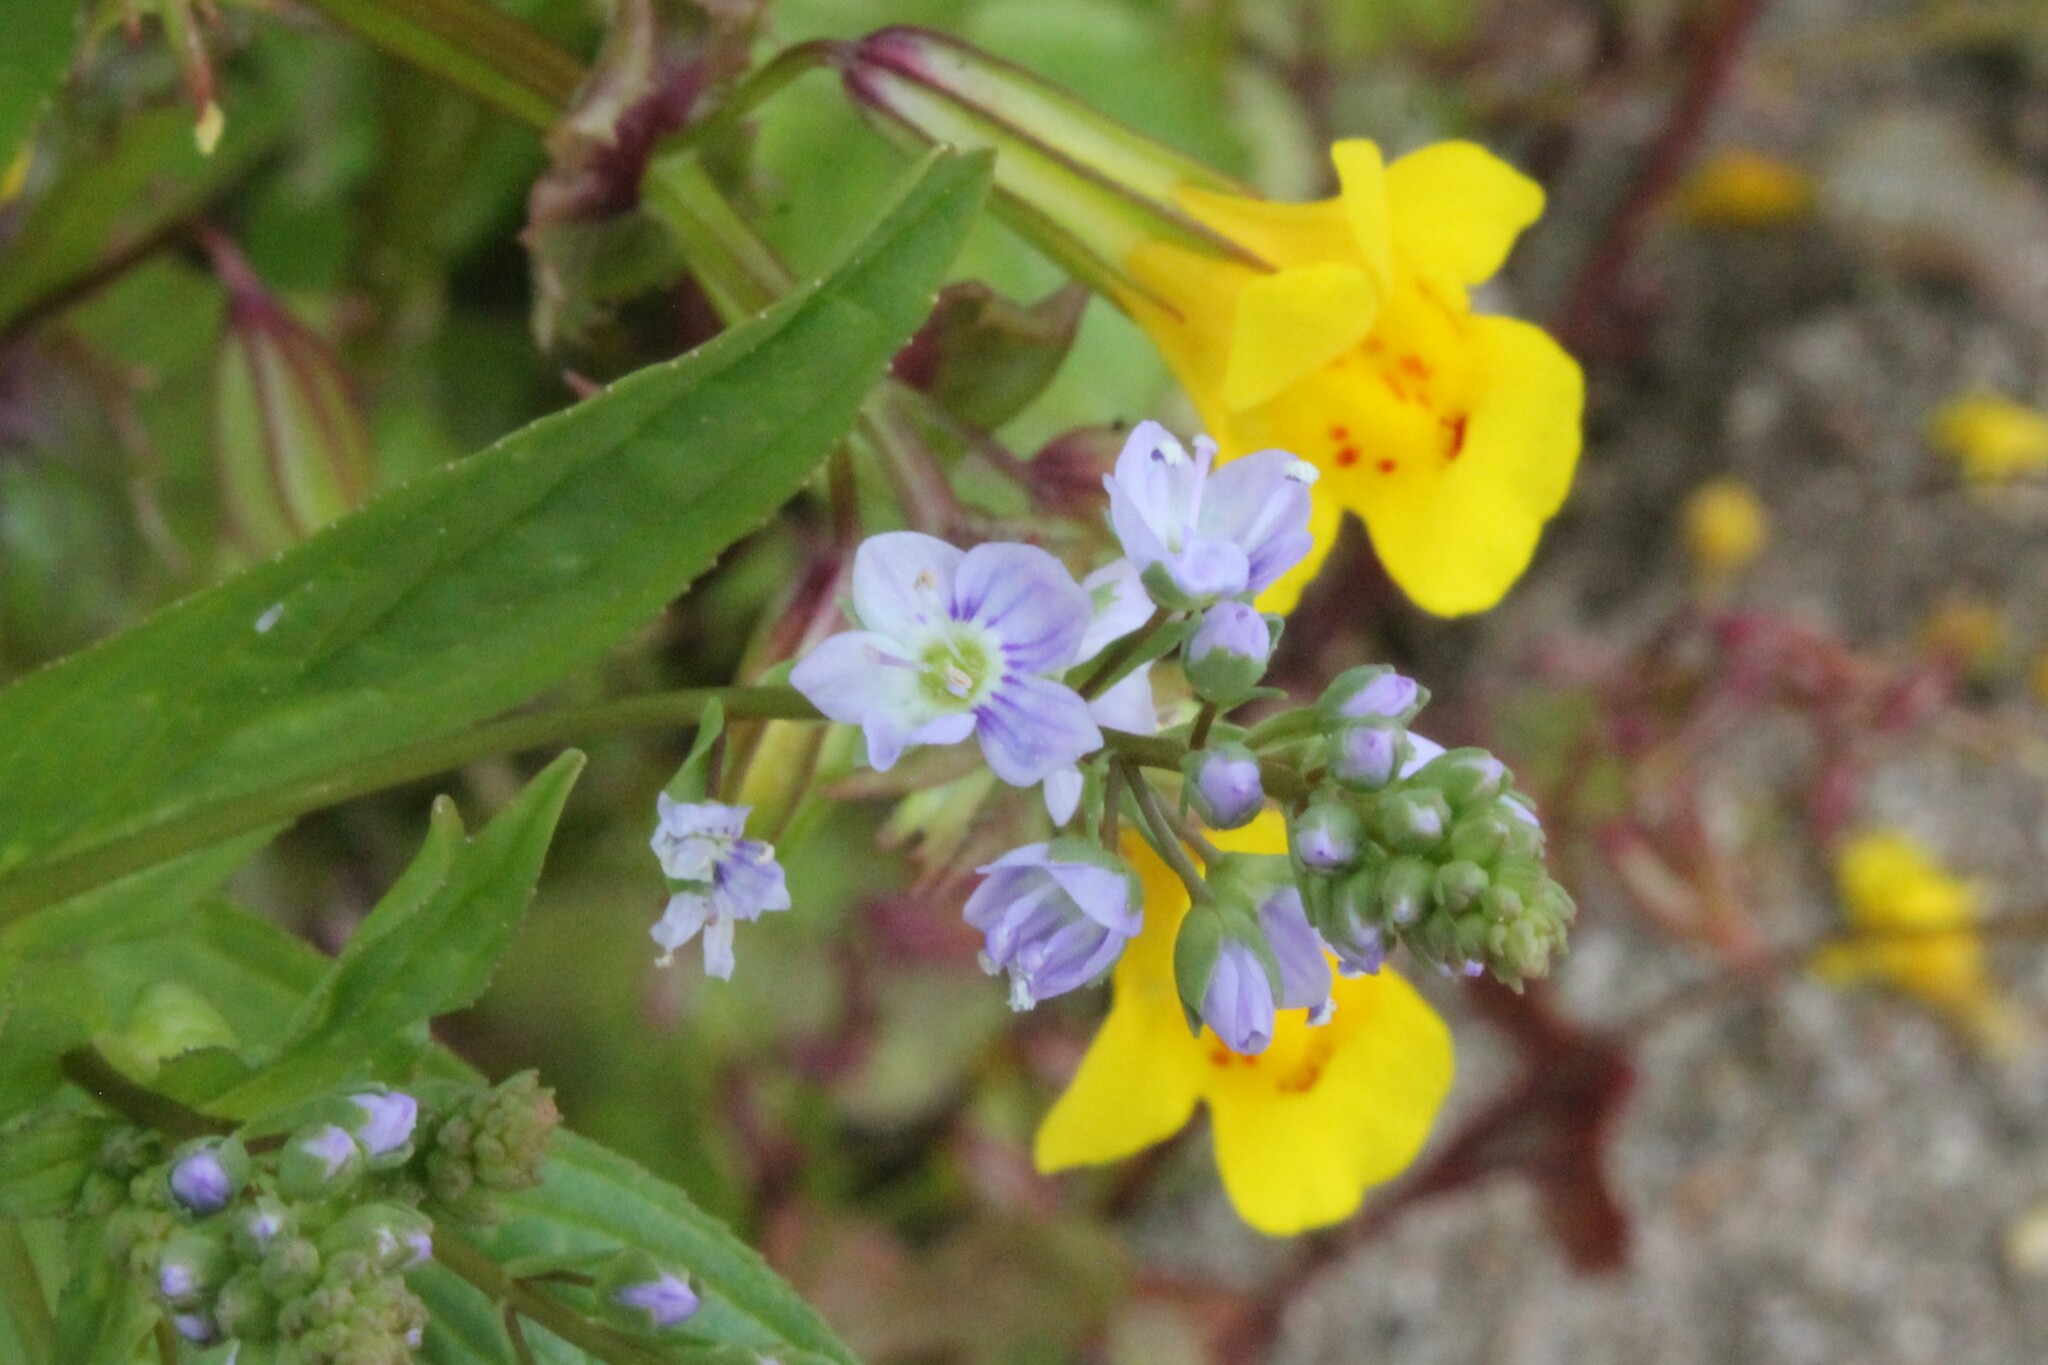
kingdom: Plantae
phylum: Tracheophyta
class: Magnoliopsida
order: Lamiales
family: Plantaginaceae
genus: Veronica
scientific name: Veronica anagallis-aquatica
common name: Water speedwell
